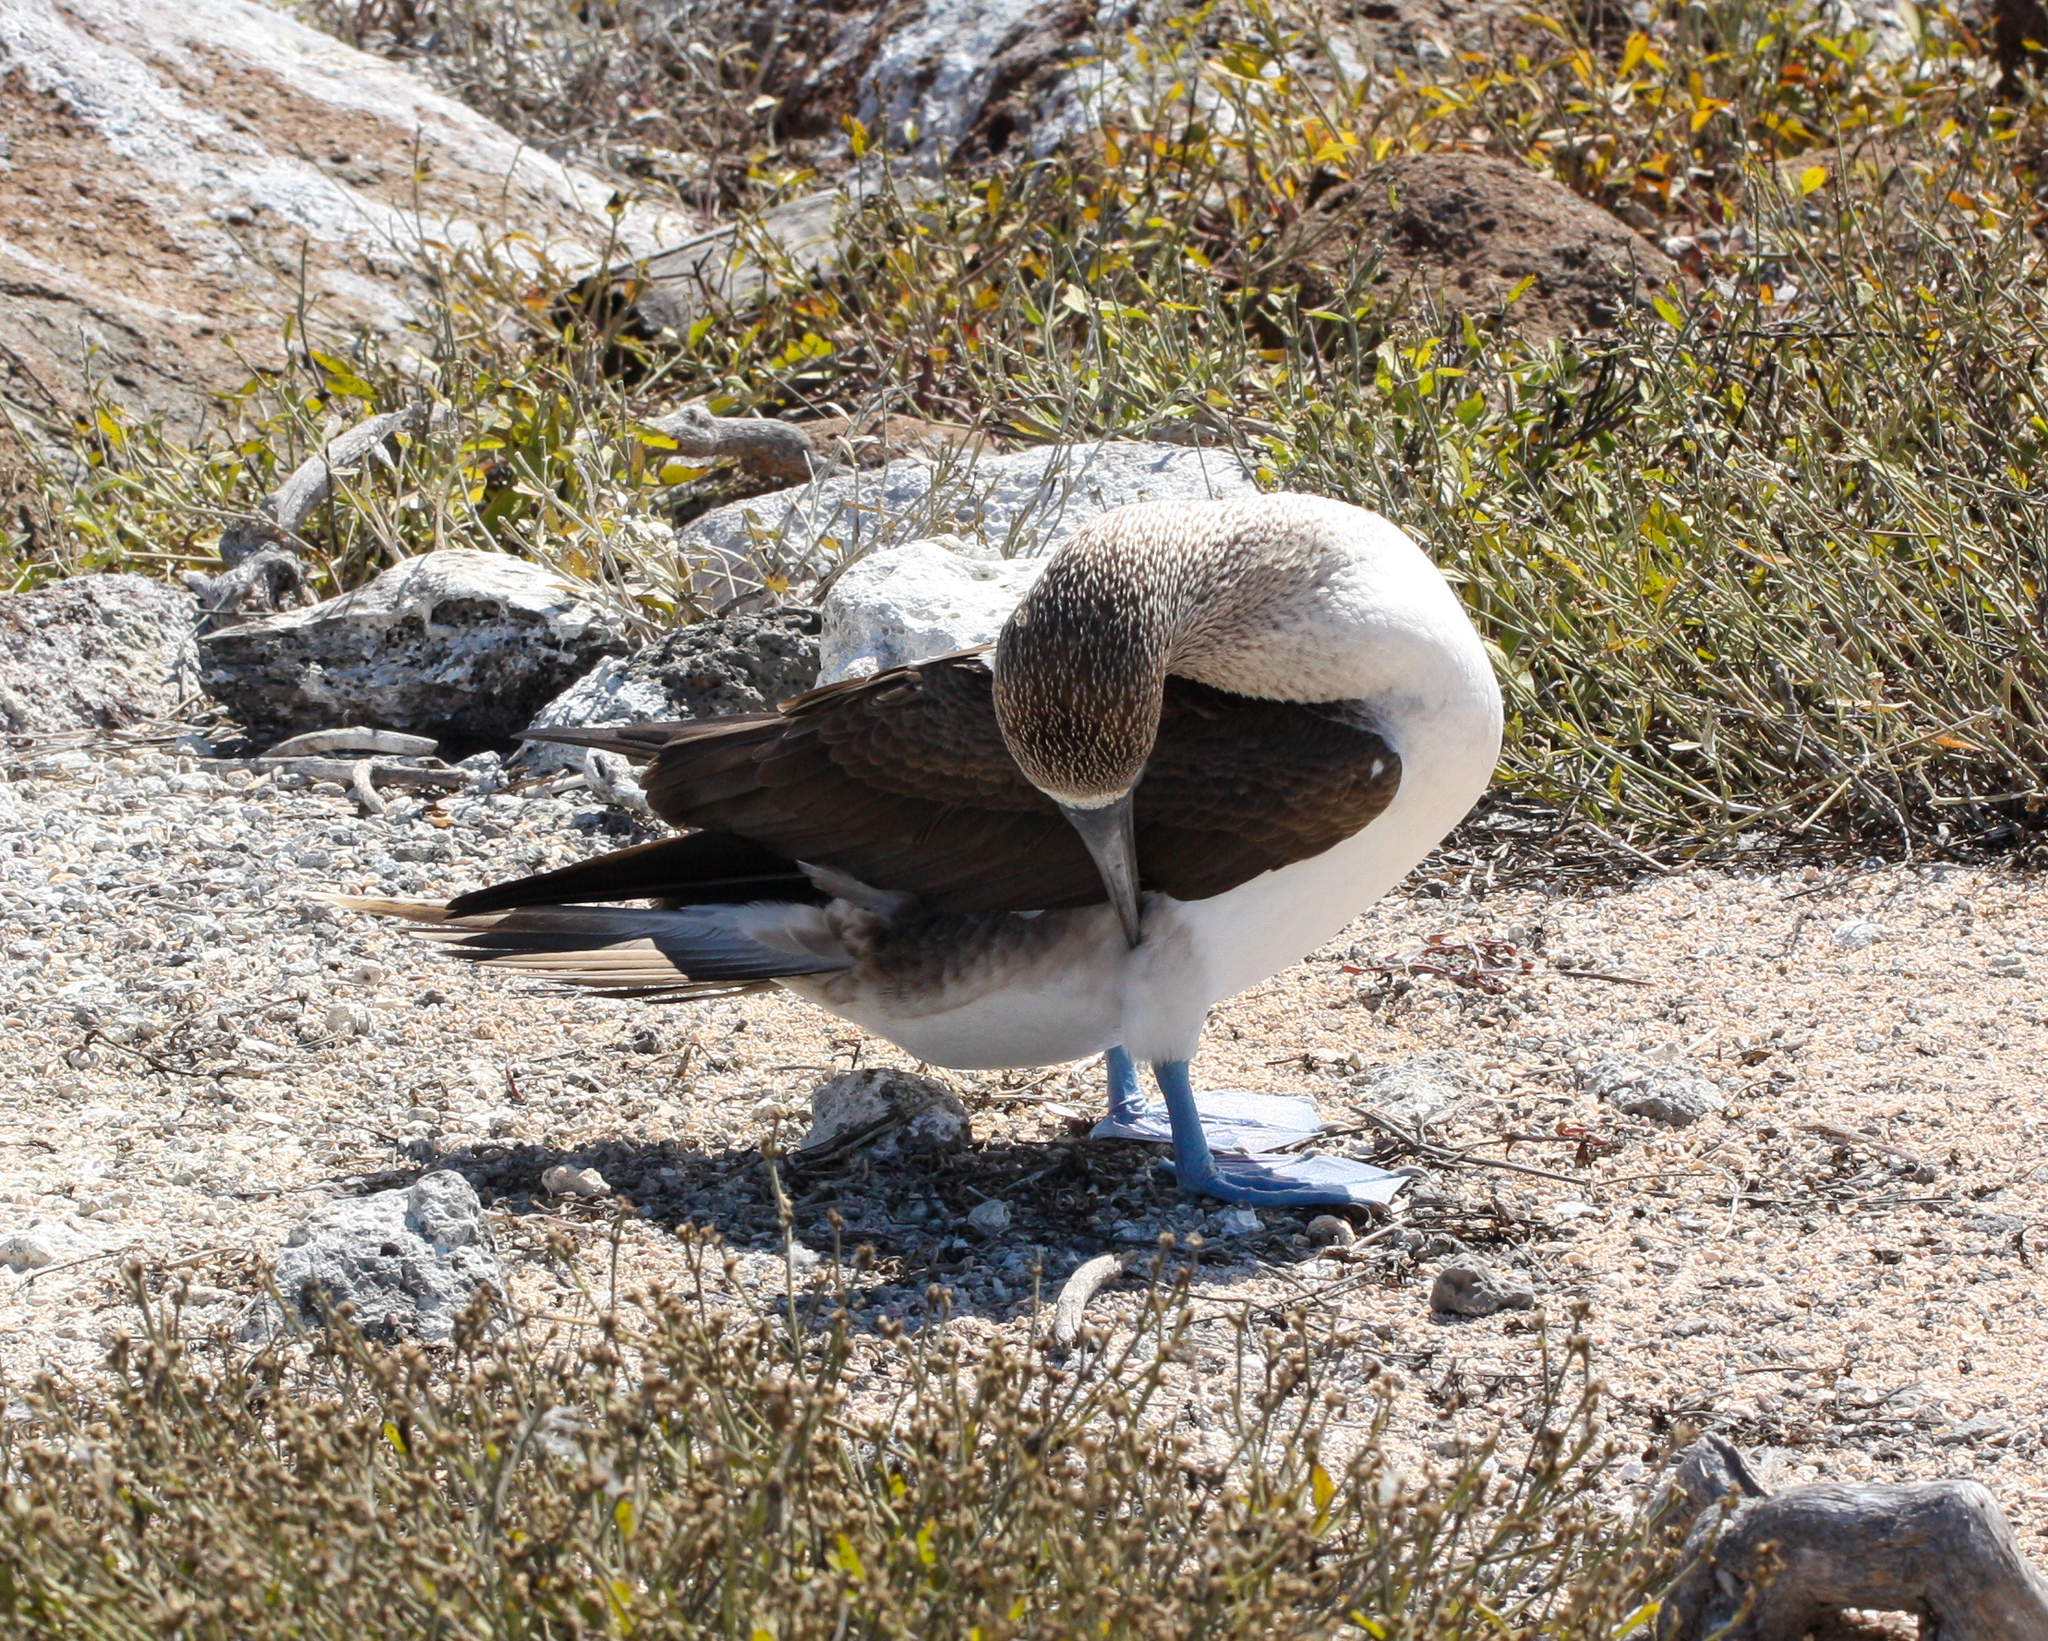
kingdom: Animalia
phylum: Chordata
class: Aves
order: Suliformes
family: Sulidae
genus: Sula
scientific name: Sula nebouxii
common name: Blue-footed booby
